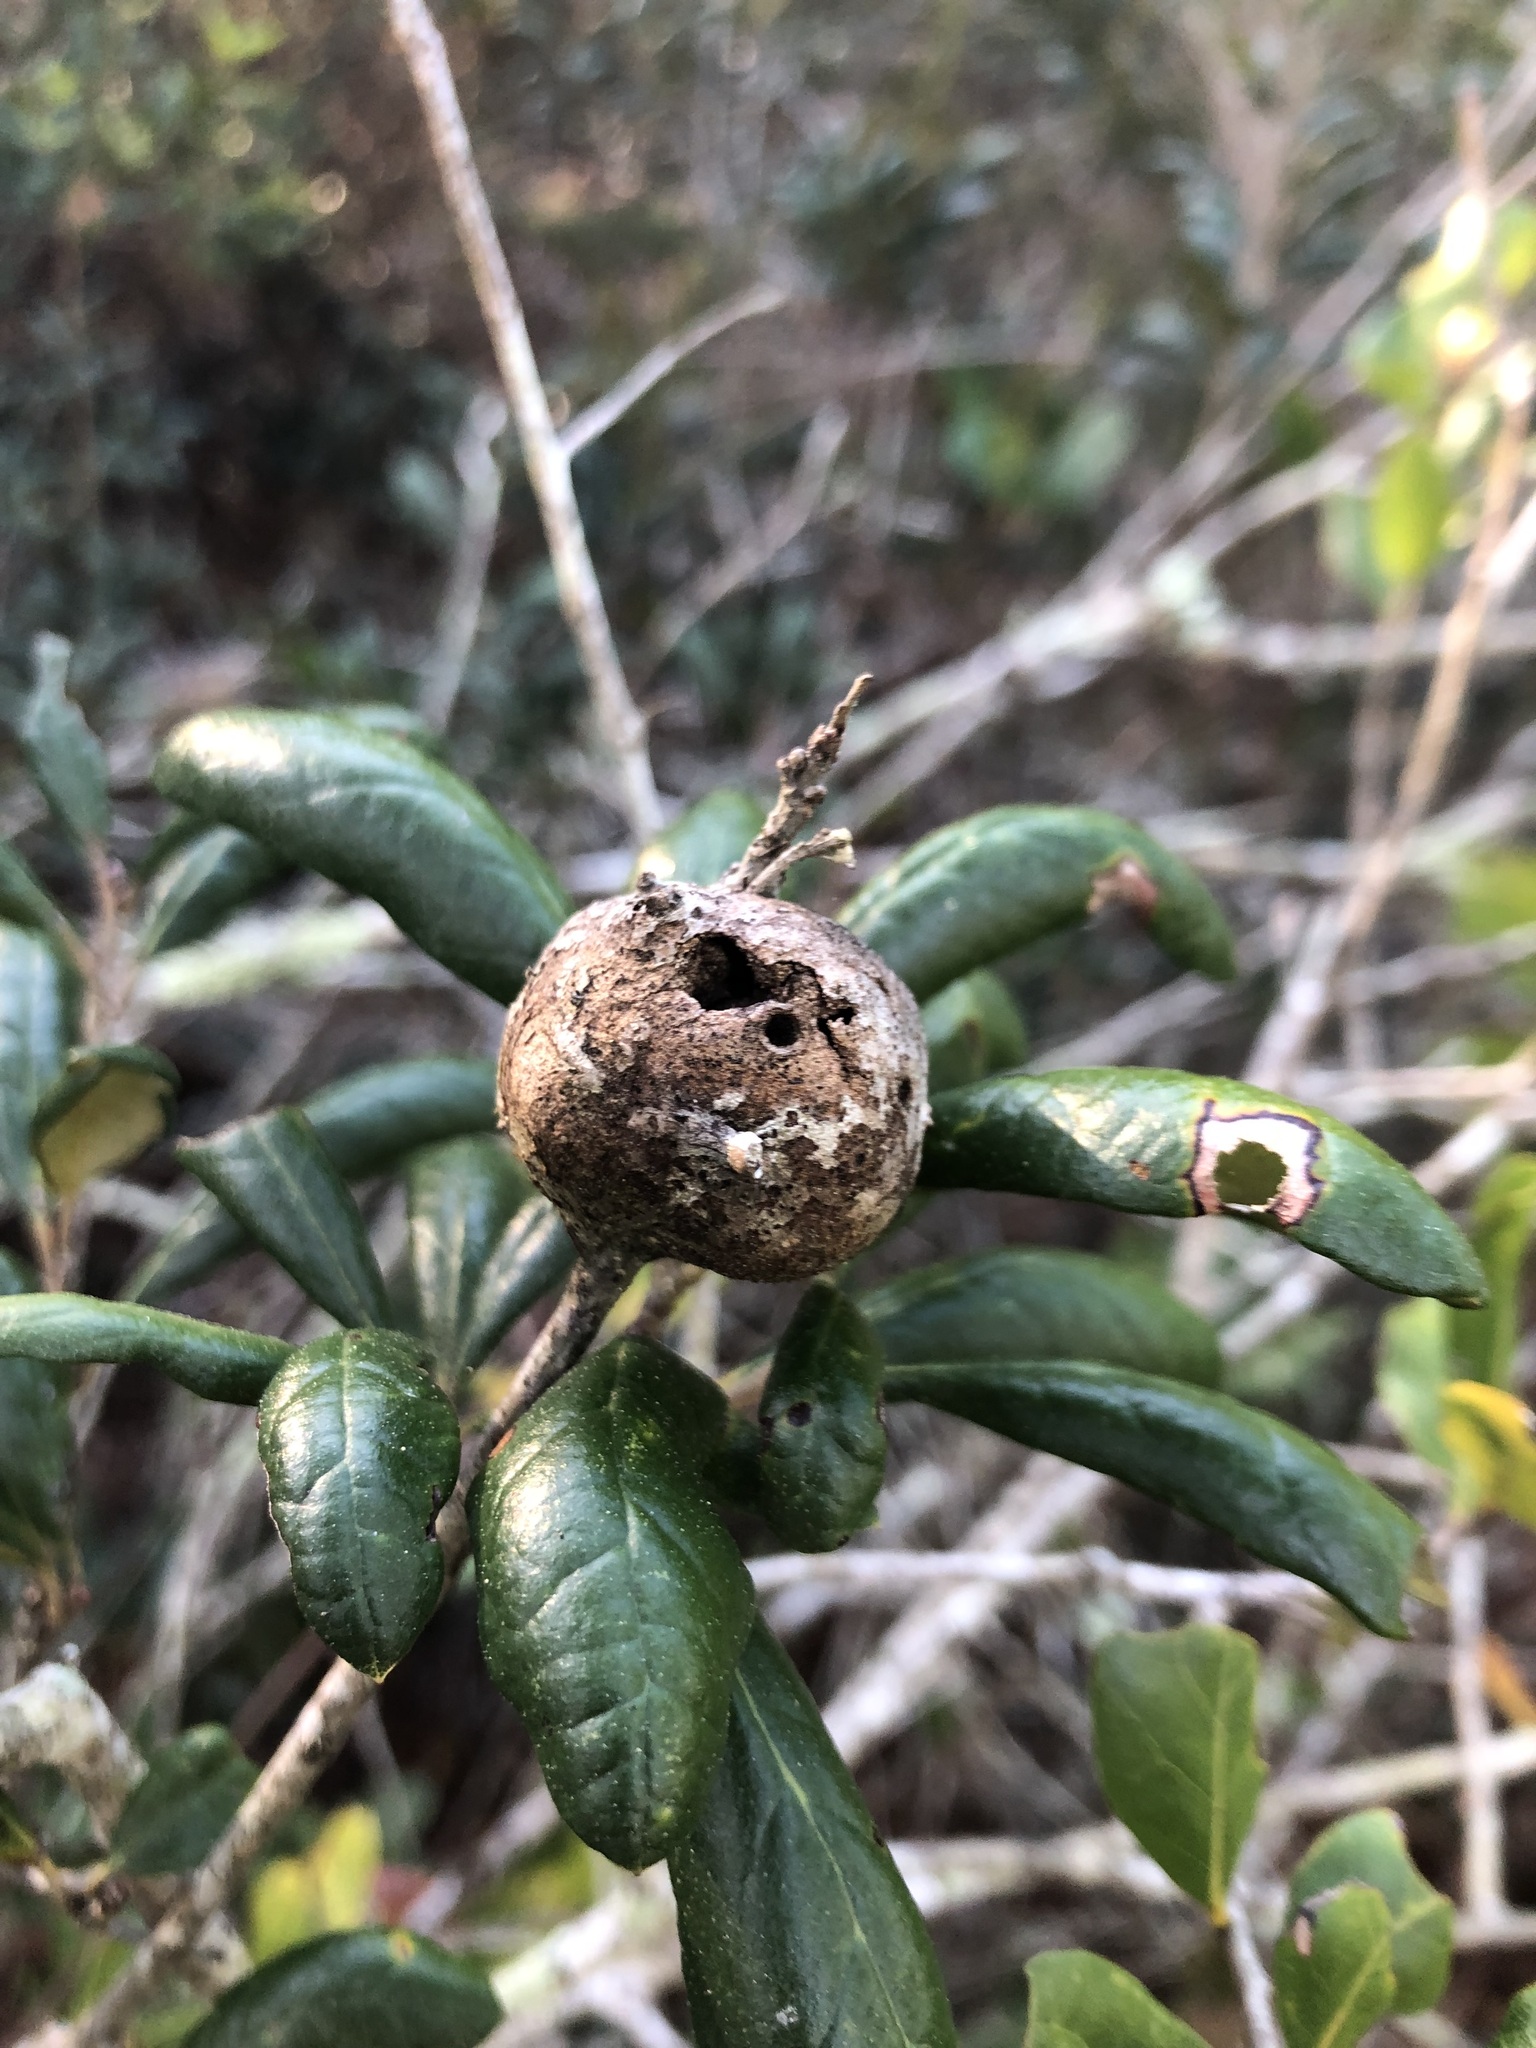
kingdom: Animalia
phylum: Arthropoda
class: Insecta
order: Hymenoptera
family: Cynipidae
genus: Callirhytis
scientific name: Callirhytis
